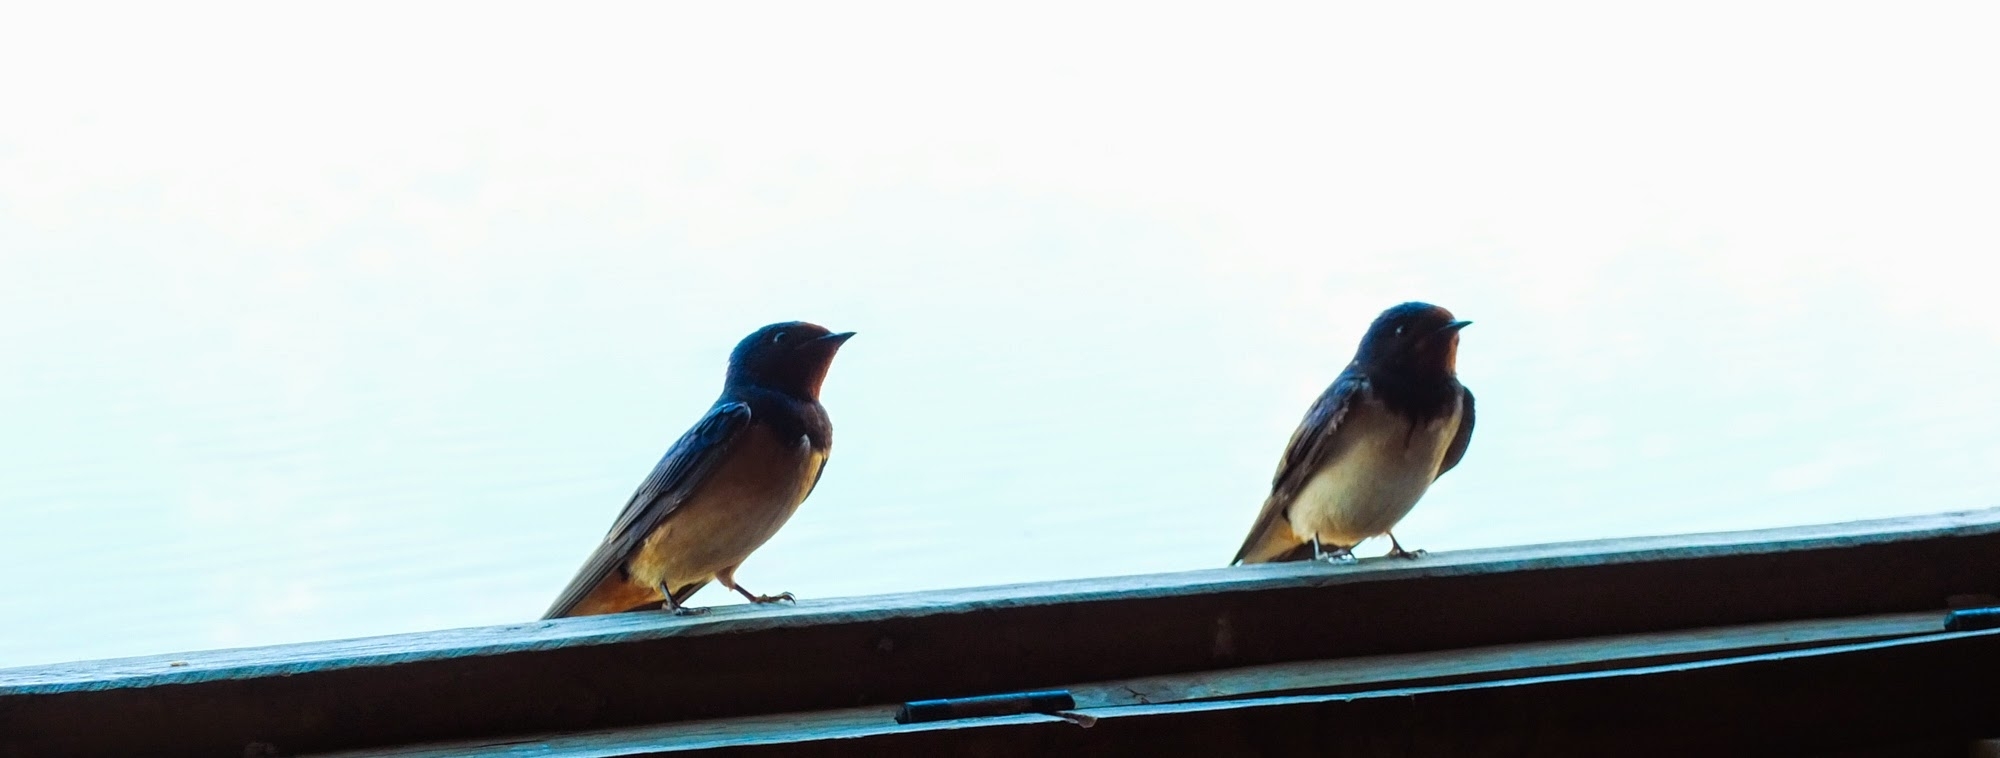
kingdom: Animalia
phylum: Chordata
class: Aves
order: Passeriformes
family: Hirundinidae
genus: Hirundo
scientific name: Hirundo rustica
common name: Barn swallow
